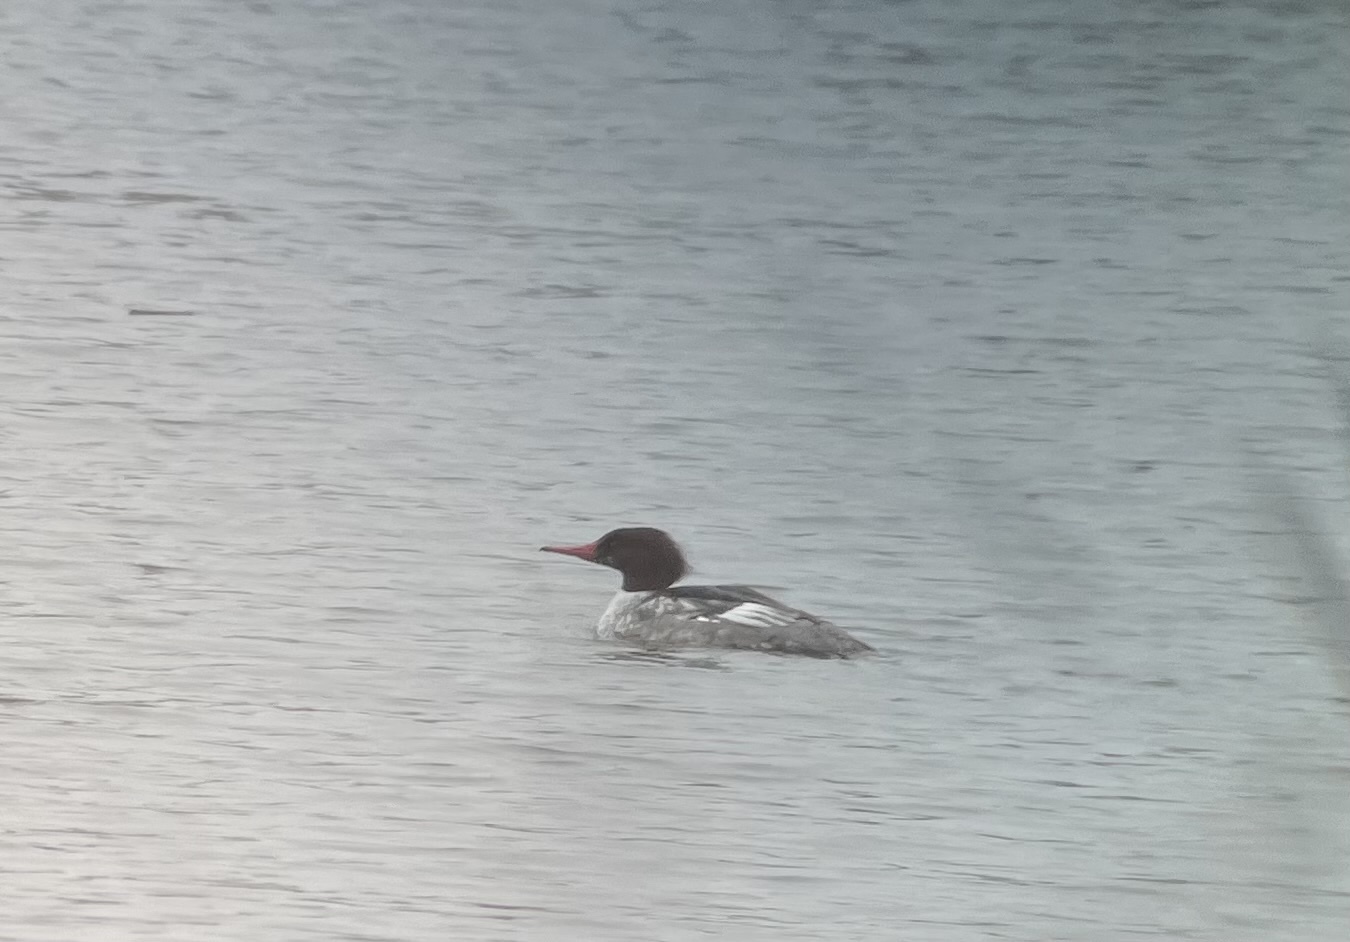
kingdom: Animalia
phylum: Chordata
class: Aves
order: Anseriformes
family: Anatidae
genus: Mergus
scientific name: Mergus merganser
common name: Common merganser
